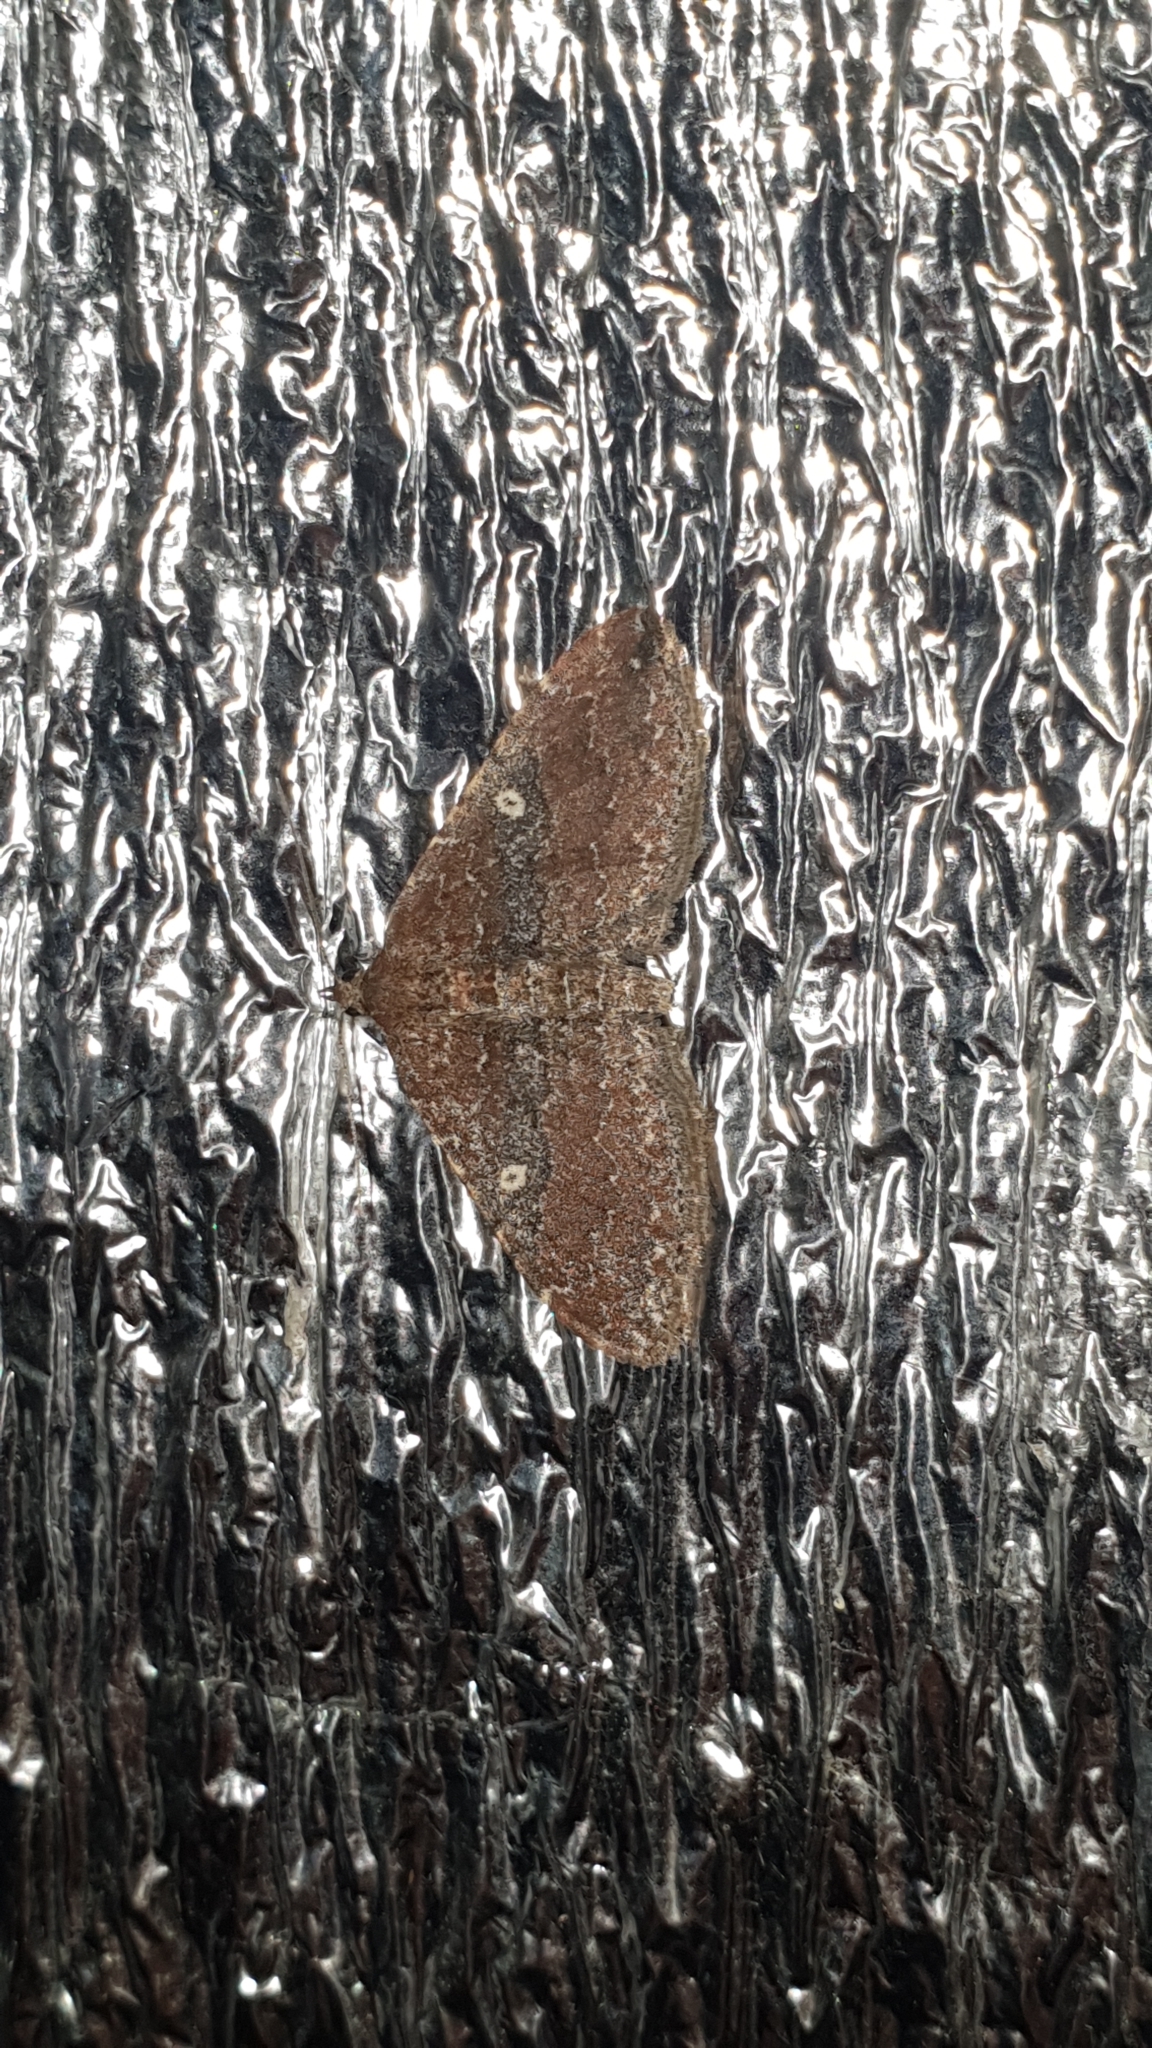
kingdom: Animalia
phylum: Arthropoda
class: Insecta
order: Lepidoptera
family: Geometridae
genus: Orthonama
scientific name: Orthonama obstipata
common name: The gem
